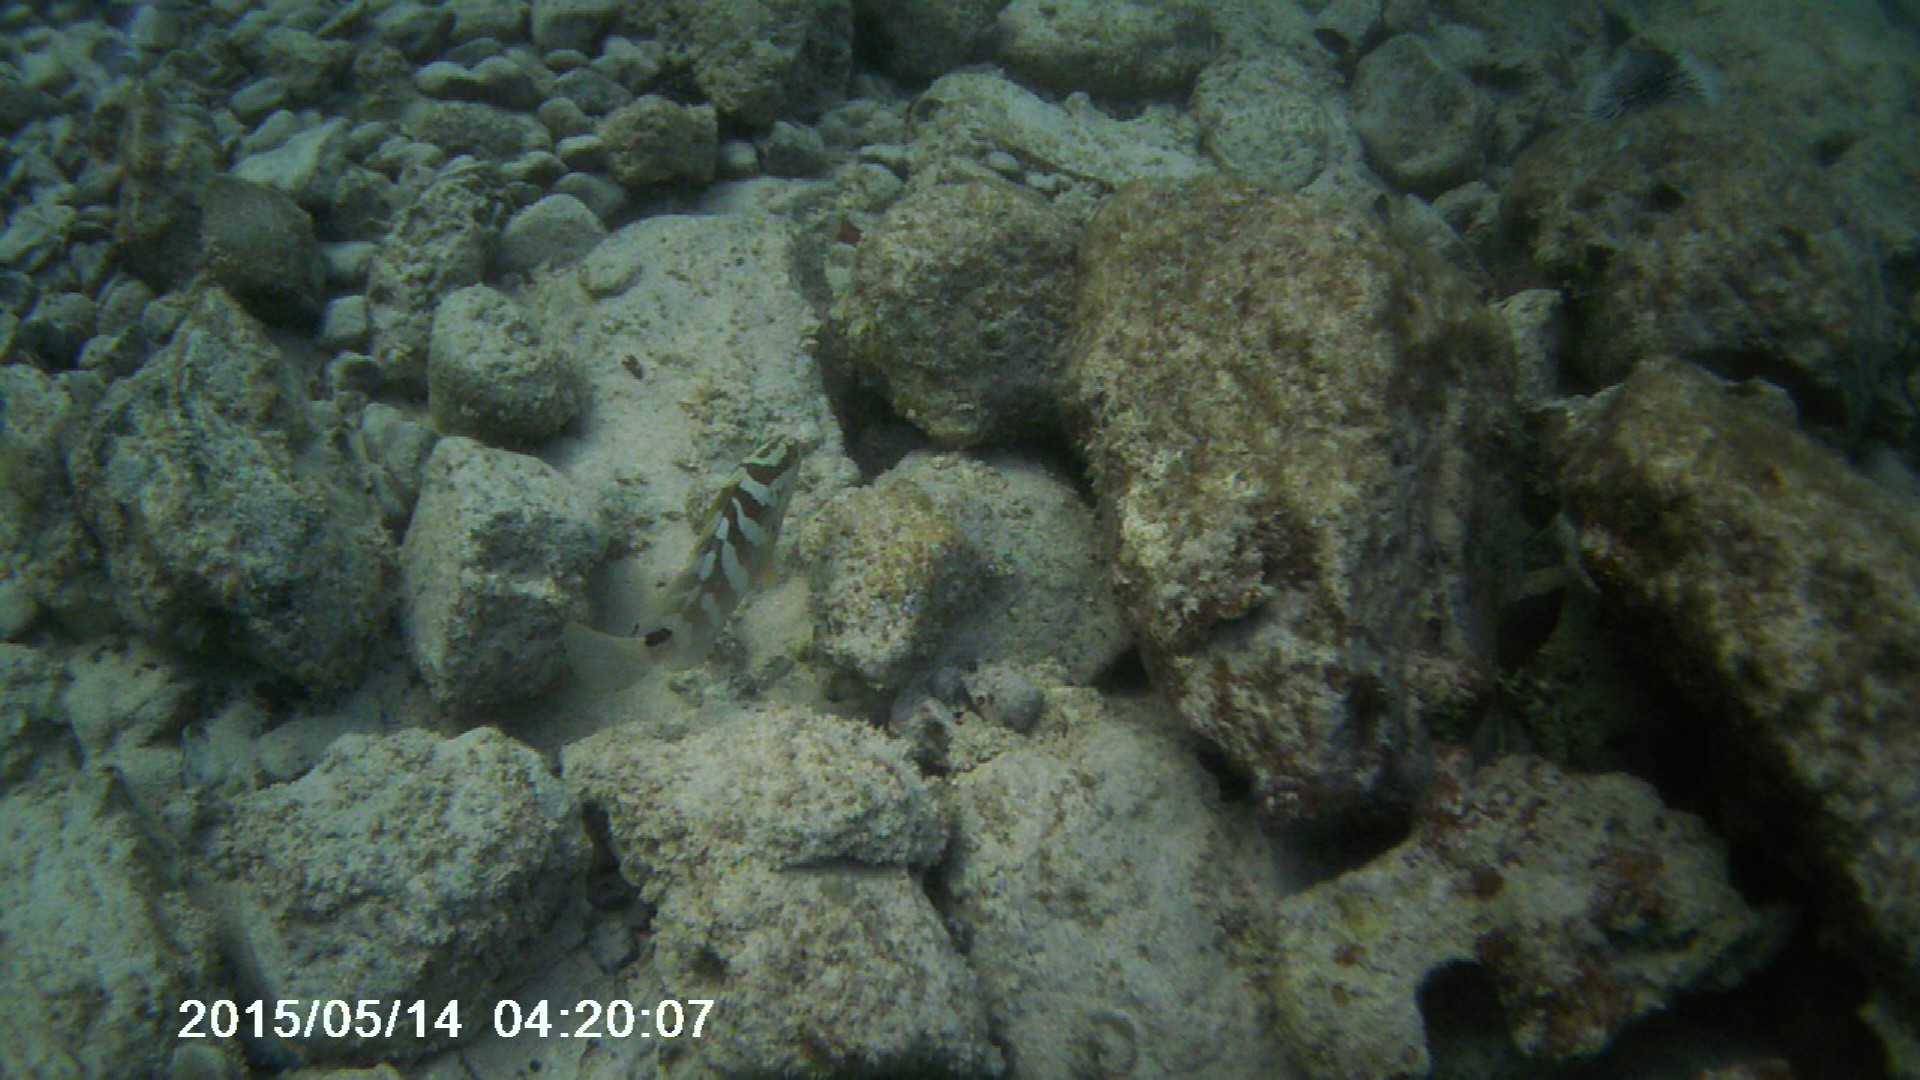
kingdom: Animalia
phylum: Chordata
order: Perciformes
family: Serranidae
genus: Epinephelus
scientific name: Epinephelus striatus
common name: Nassau grouper
